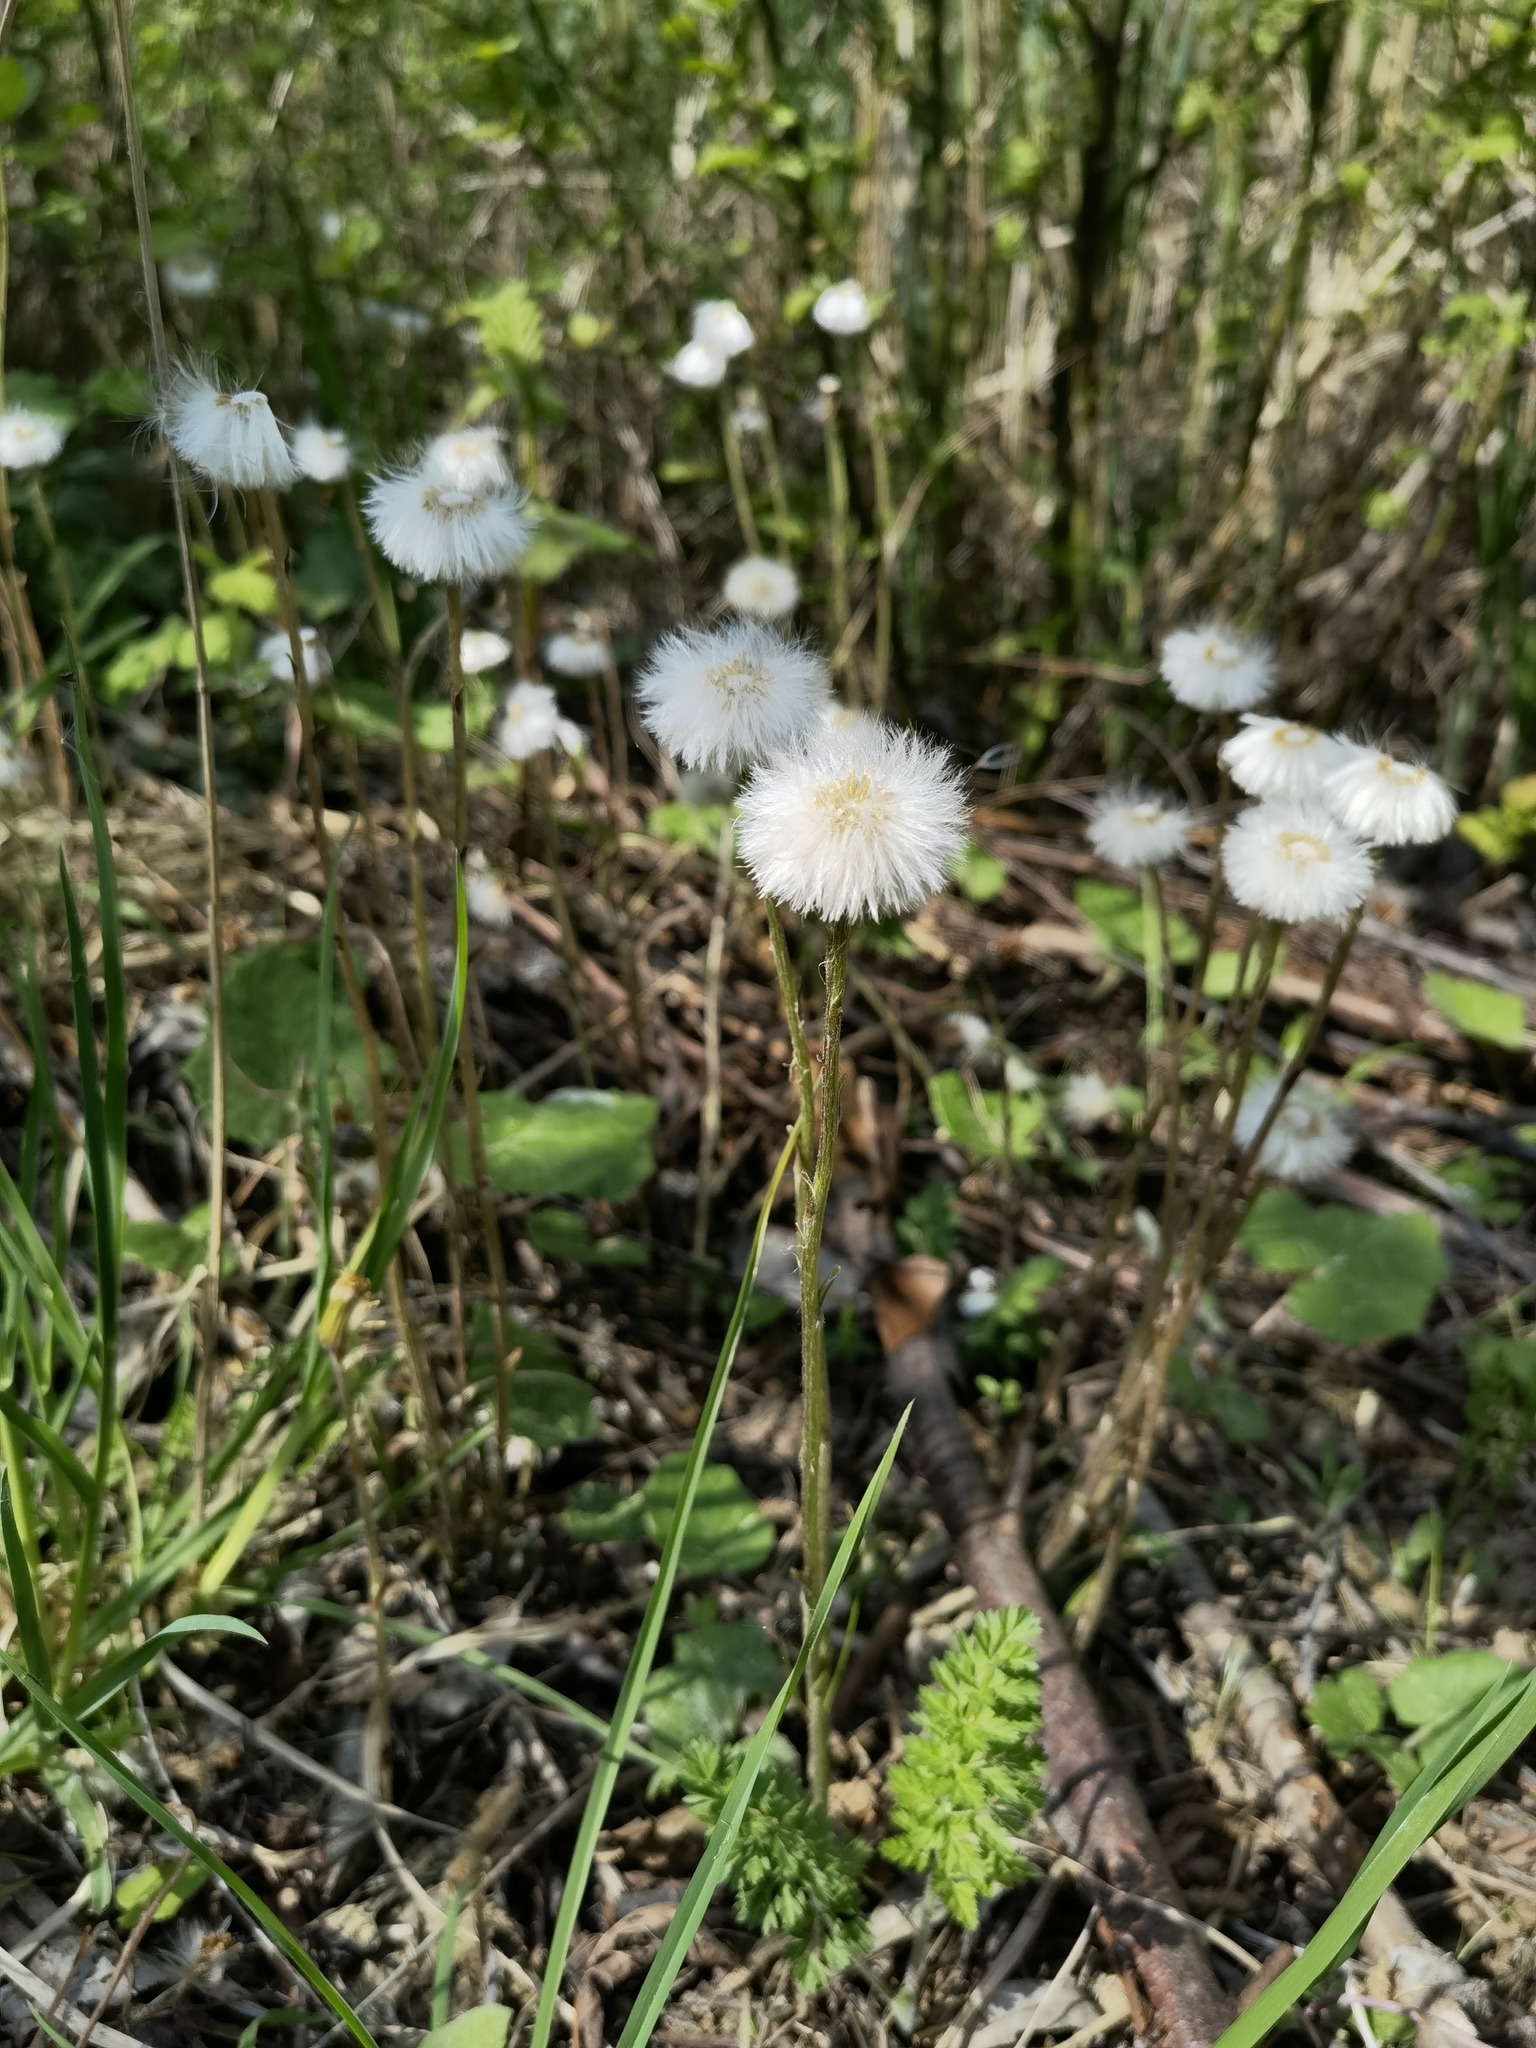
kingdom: Plantae
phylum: Tracheophyta
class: Magnoliopsida
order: Asterales
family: Asteraceae
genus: Tussilago
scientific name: Tussilago farfara
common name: Coltsfoot
